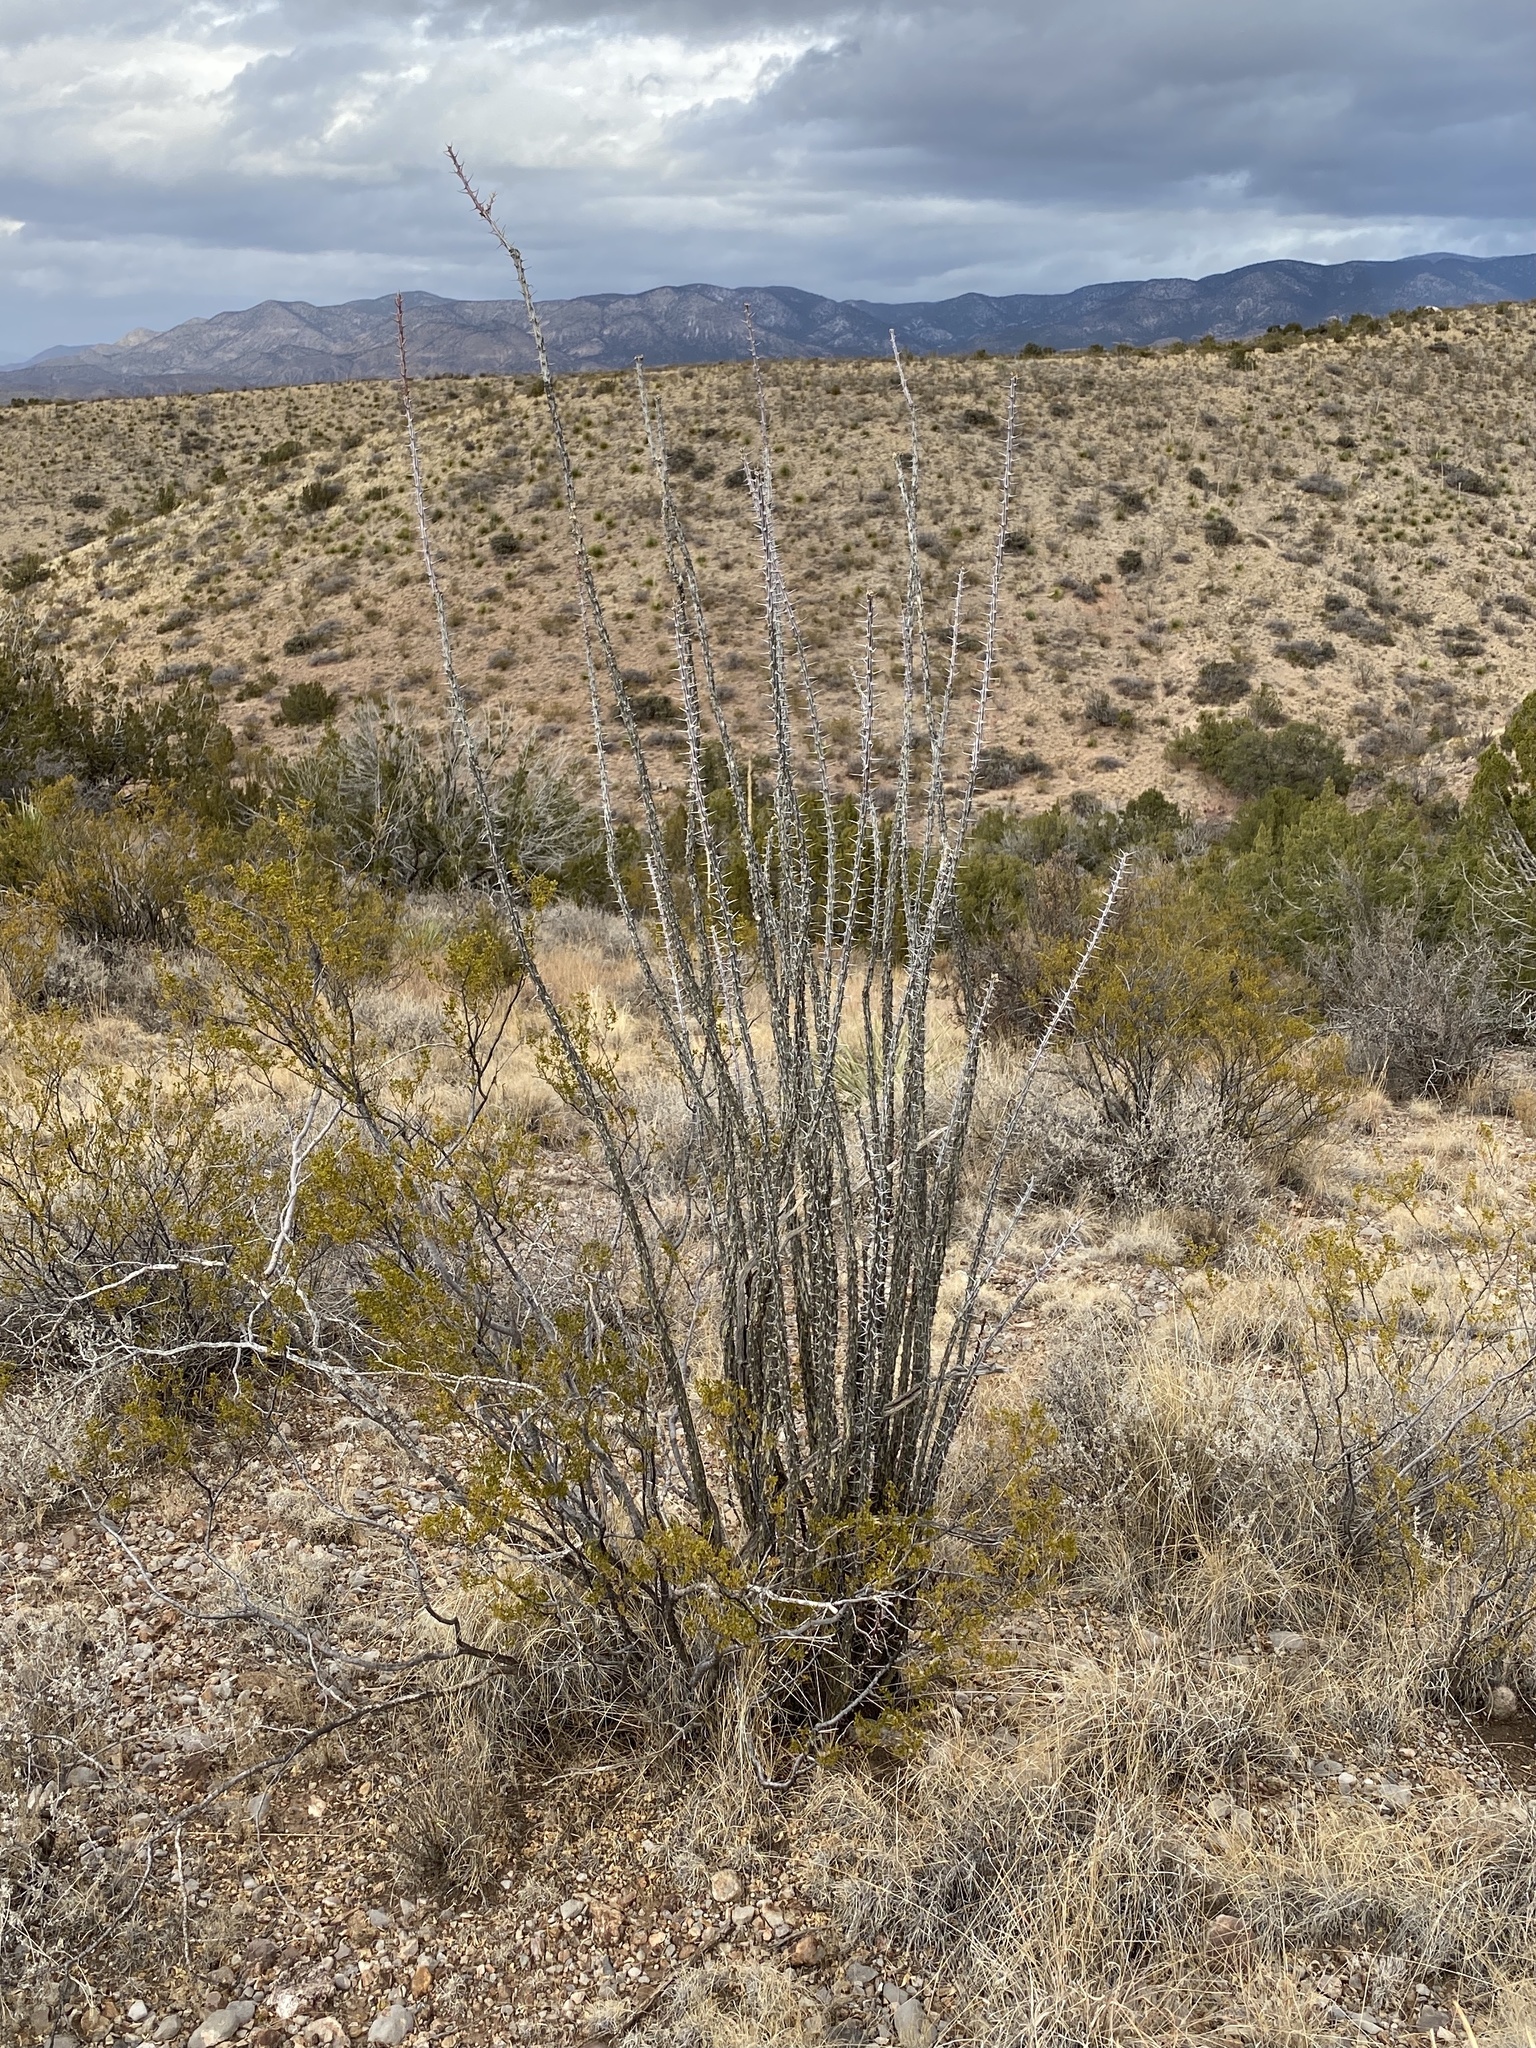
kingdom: Plantae
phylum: Tracheophyta
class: Magnoliopsida
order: Ericales
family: Fouquieriaceae
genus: Fouquieria
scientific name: Fouquieria splendens
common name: Vine-cactus
